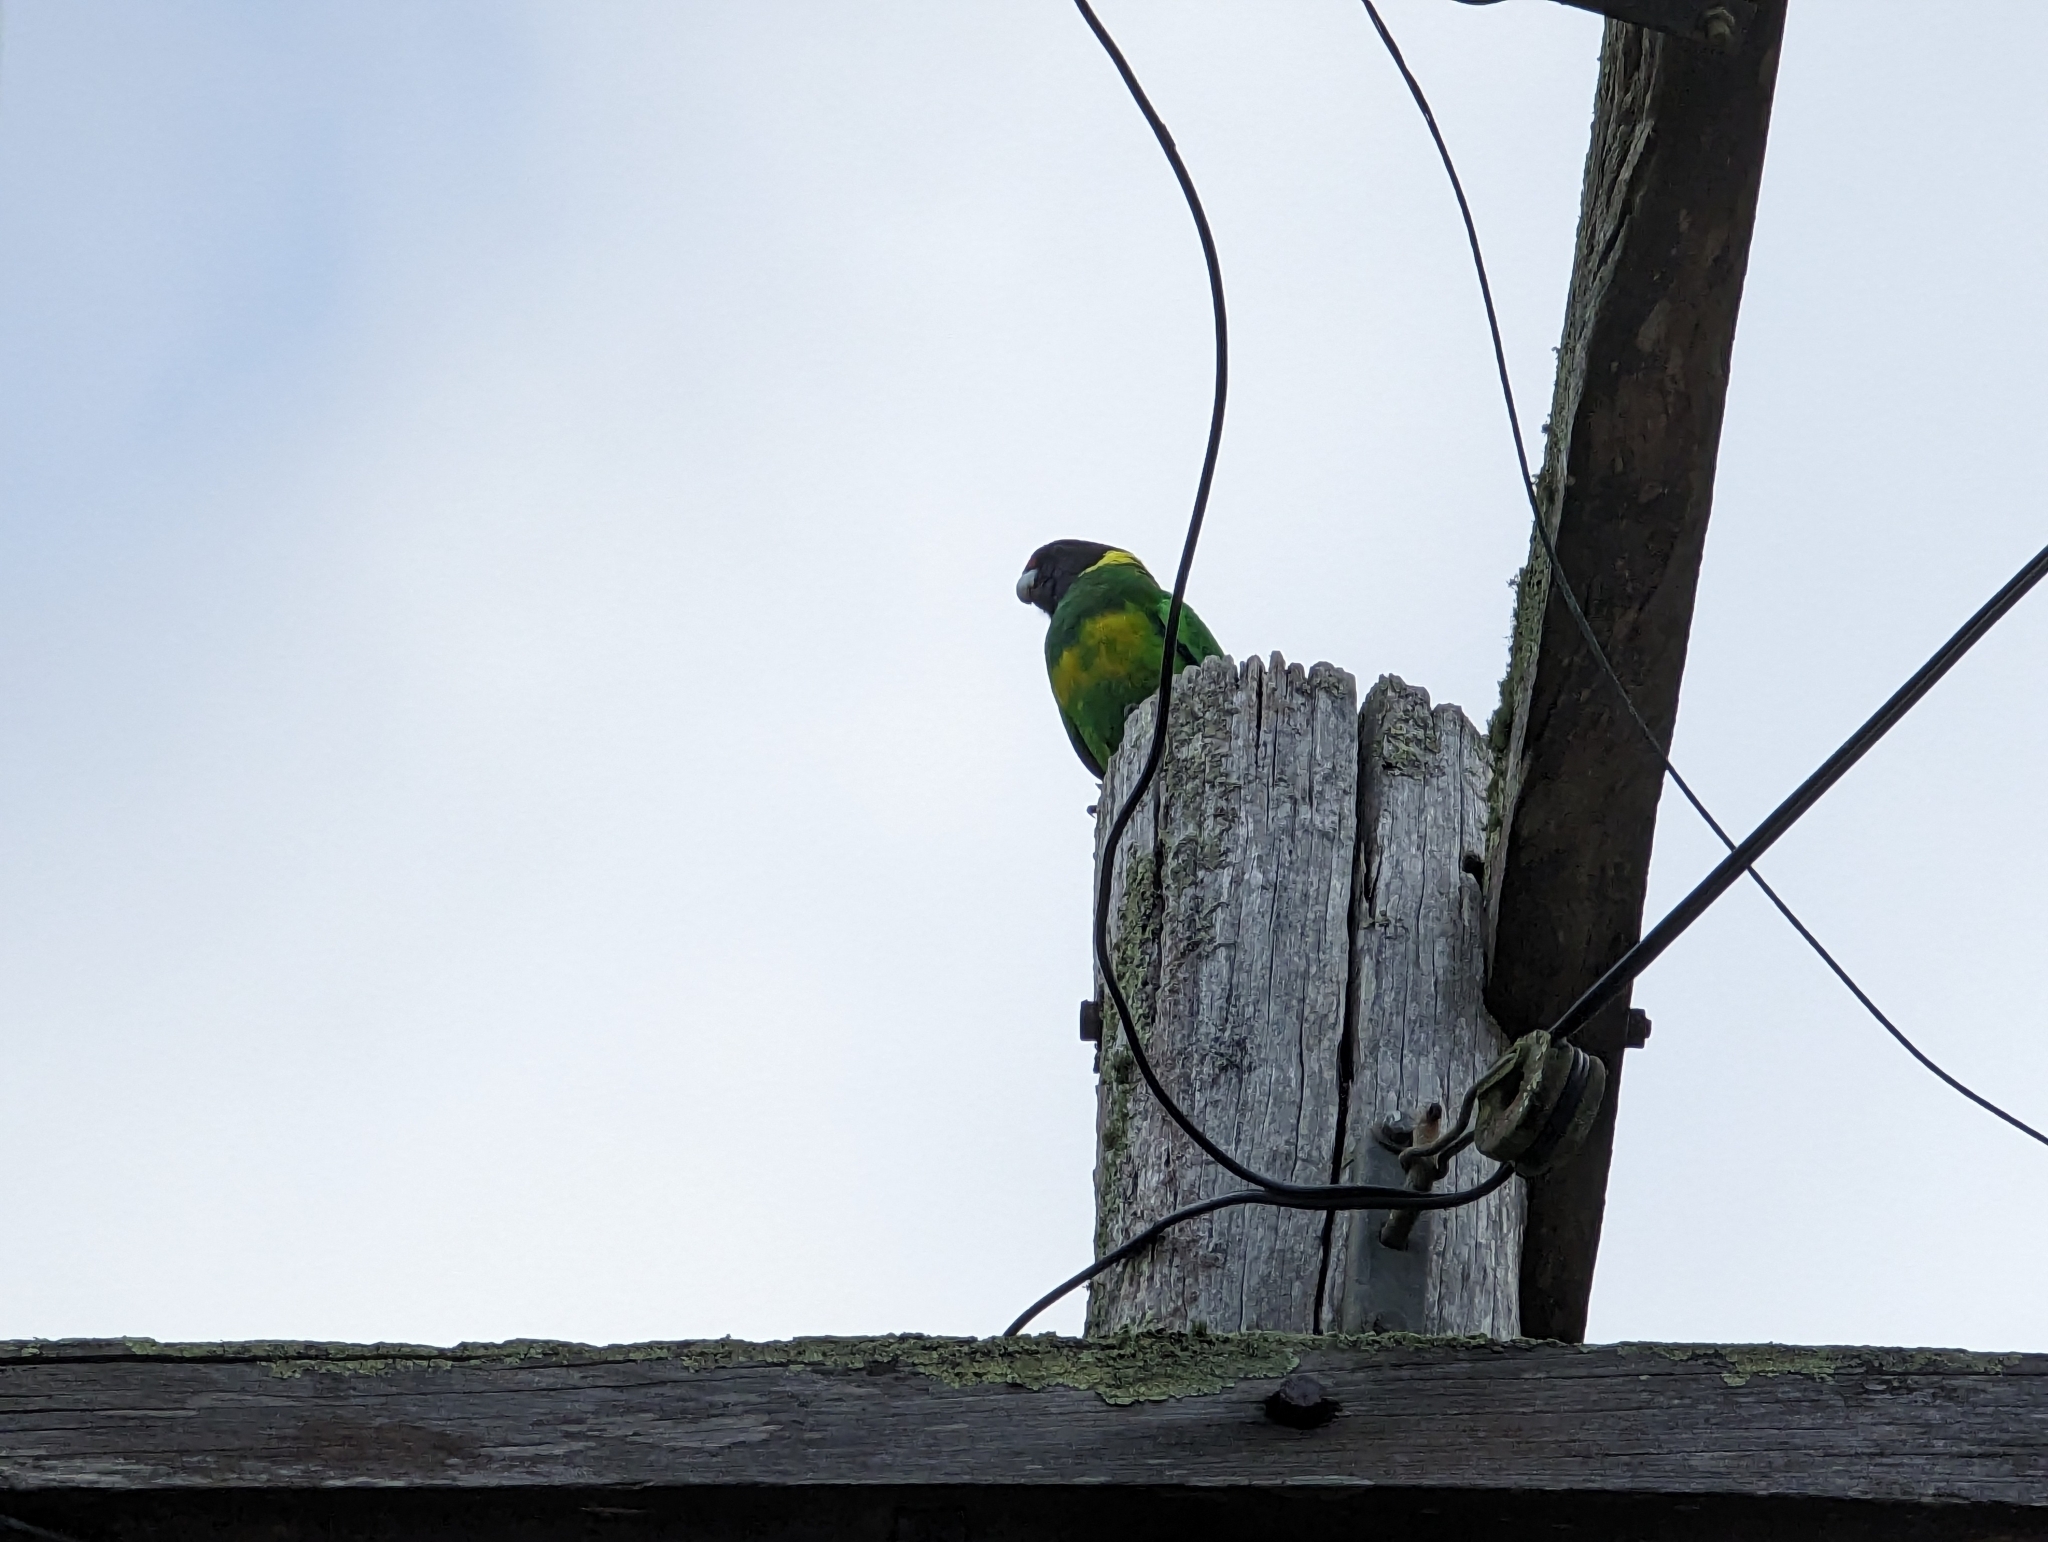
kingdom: Animalia
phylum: Chordata
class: Aves
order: Psittaciformes
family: Psittacidae
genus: Barnardius
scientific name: Barnardius zonarius
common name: Australian ringneck
